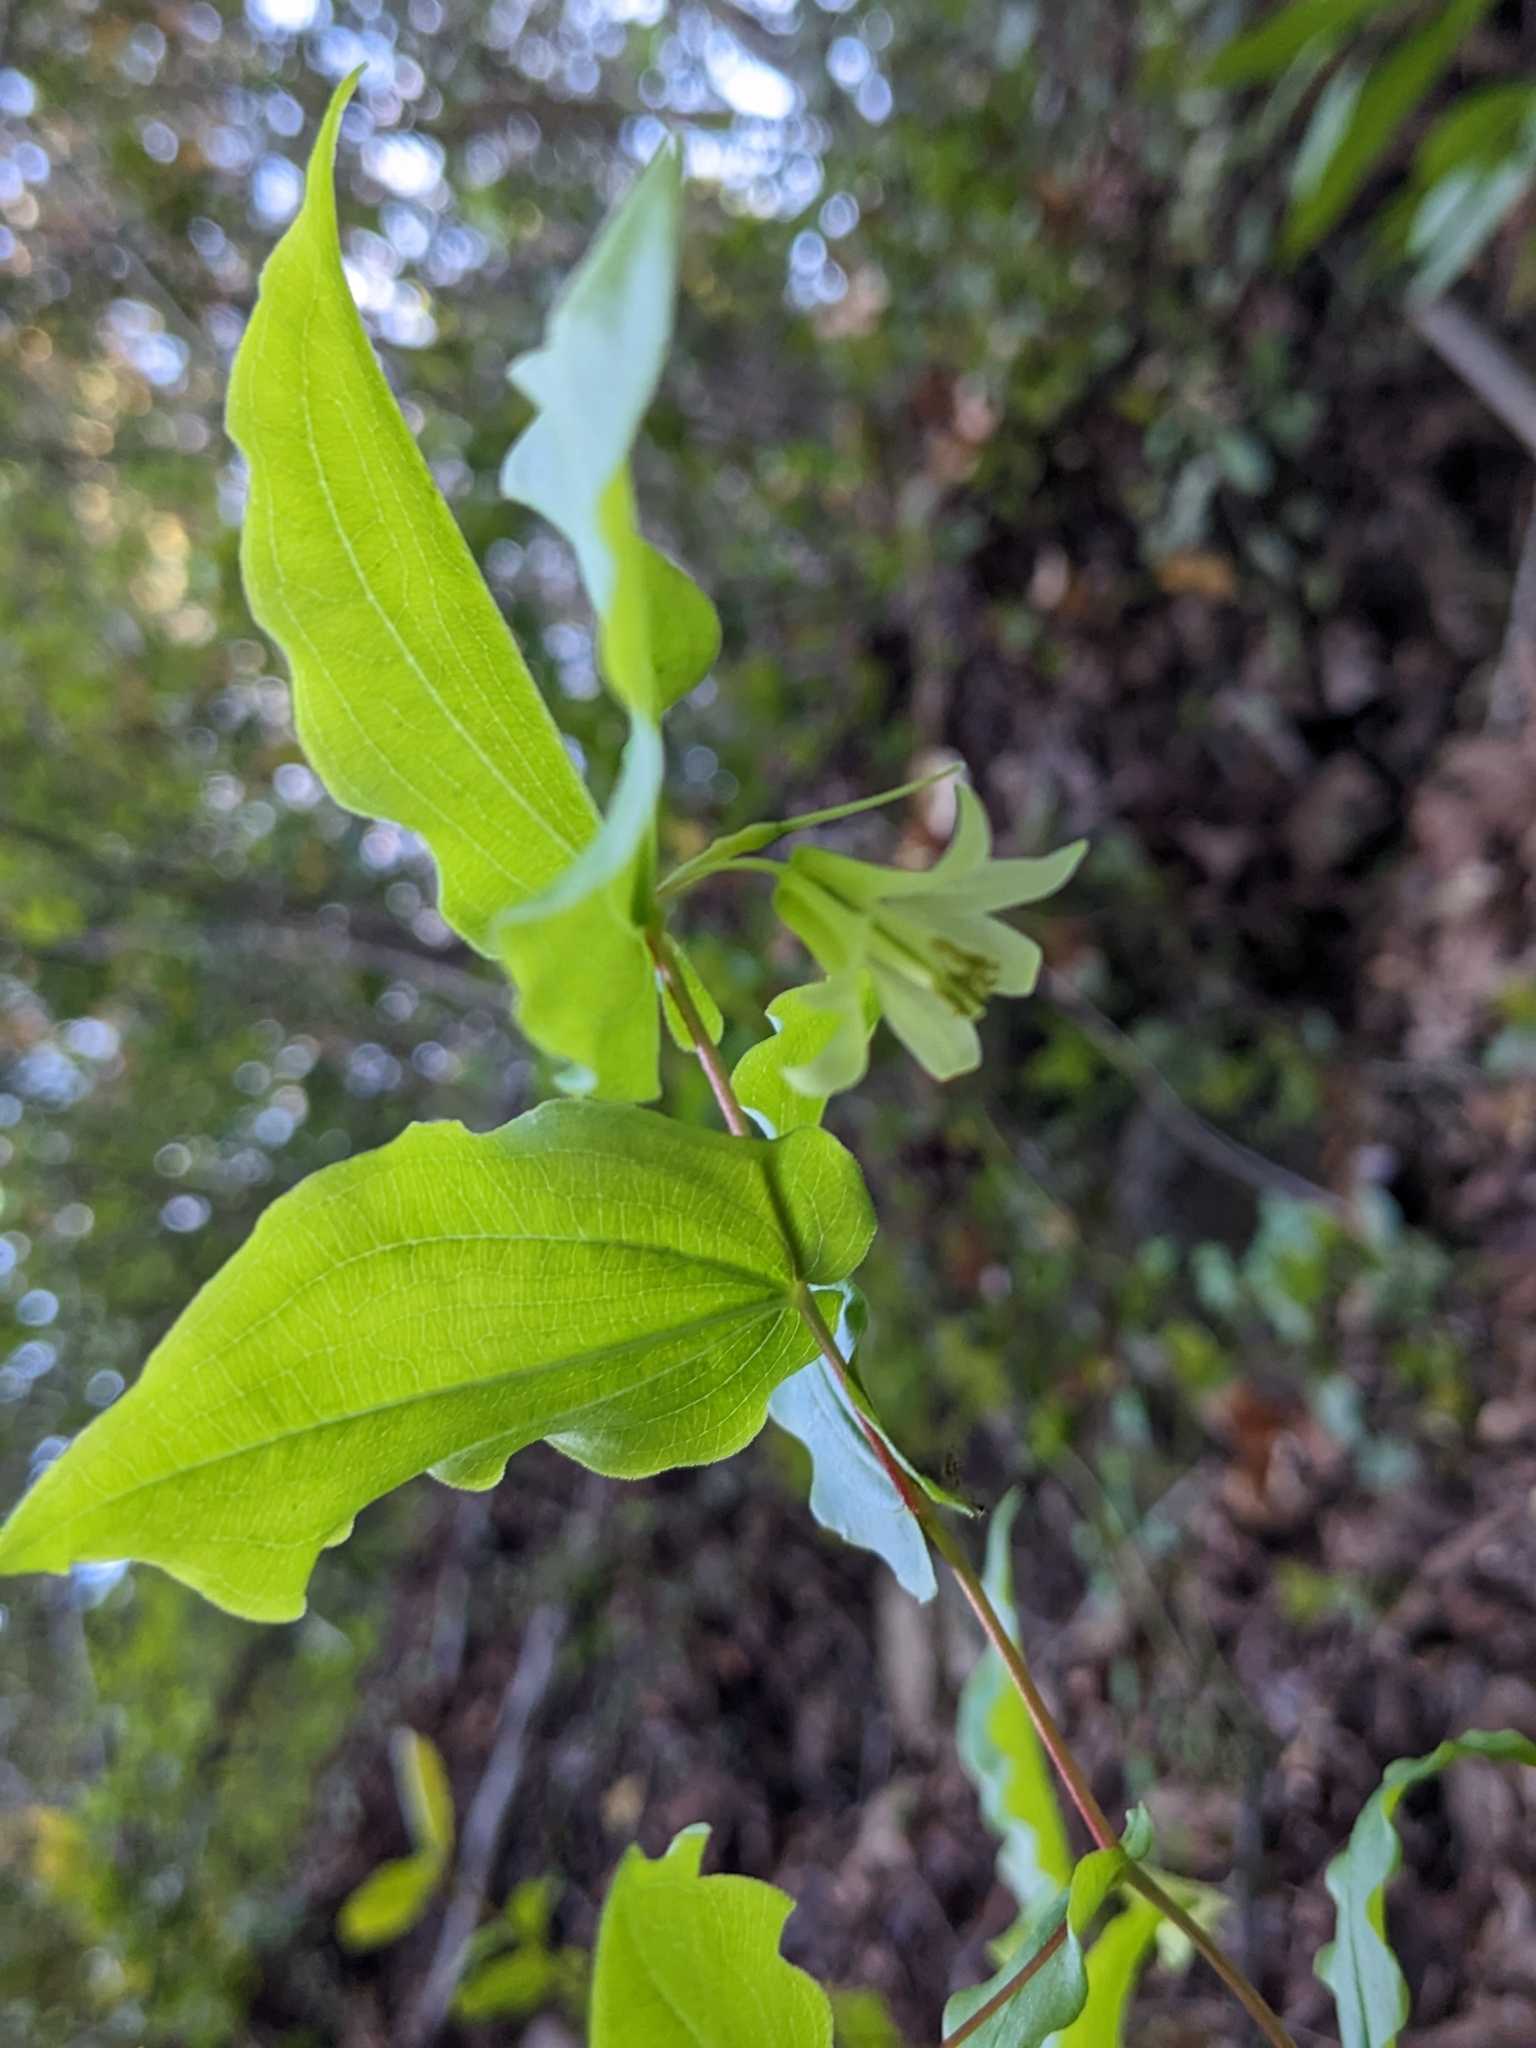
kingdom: Plantae
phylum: Tracheophyta
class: Liliopsida
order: Liliales
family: Liliaceae
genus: Prosartes
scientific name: Prosartes hookeri
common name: Fairy-bells
